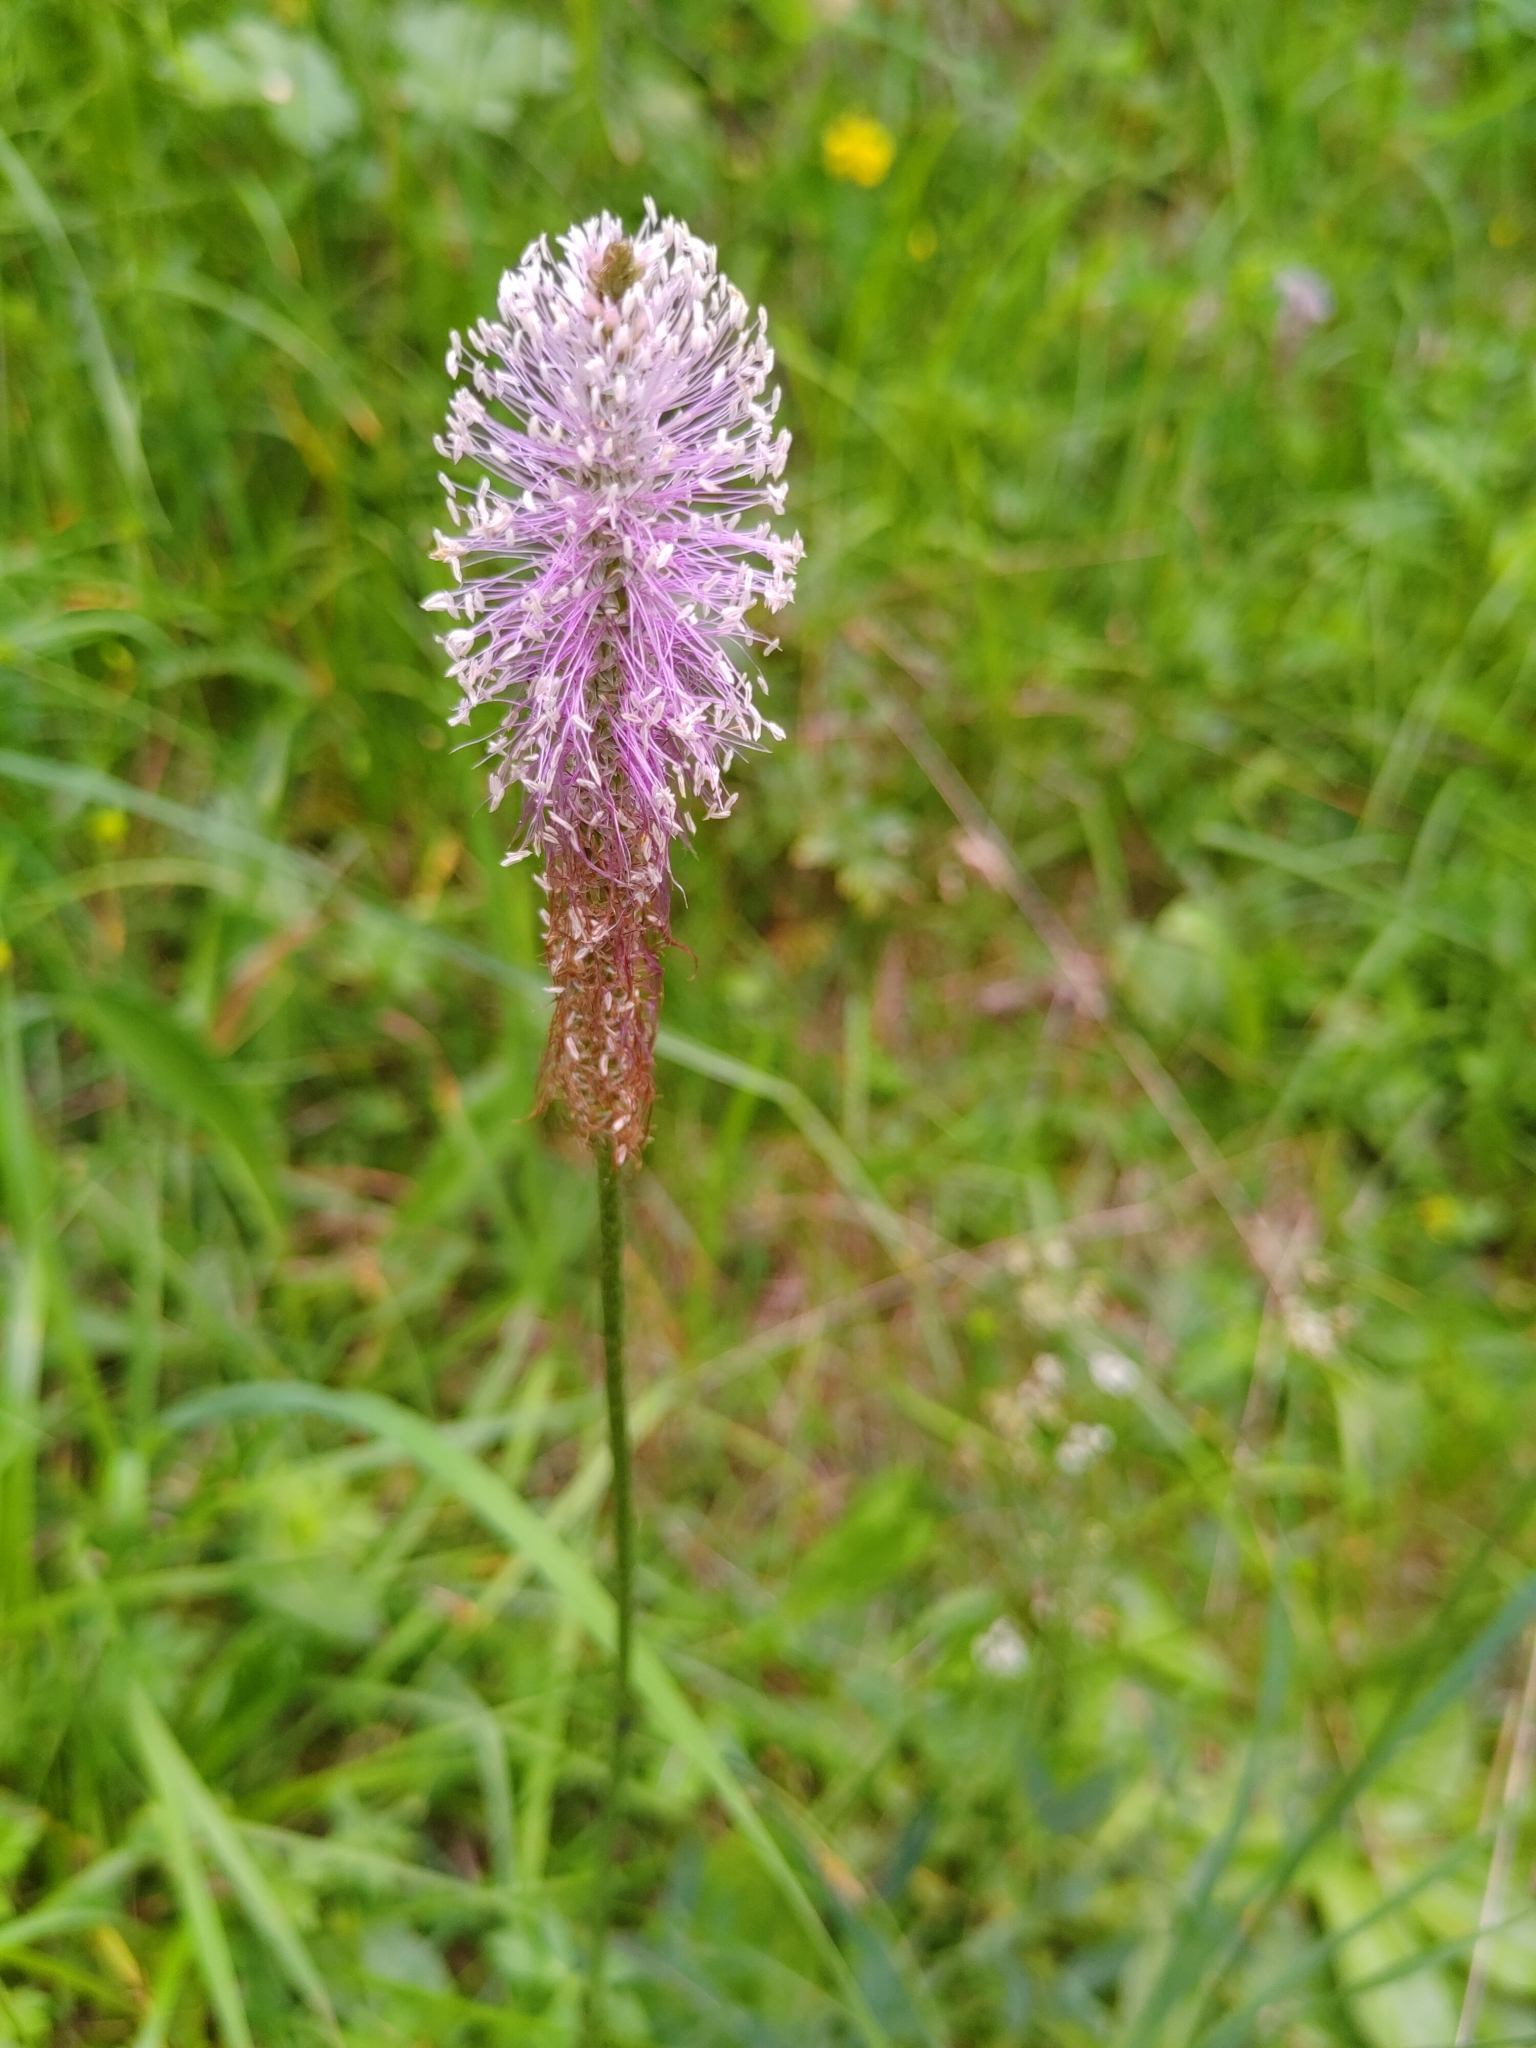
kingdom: Plantae
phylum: Tracheophyta
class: Magnoliopsida
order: Lamiales
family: Plantaginaceae
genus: Plantago
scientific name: Plantago media
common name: Hoary plantain
